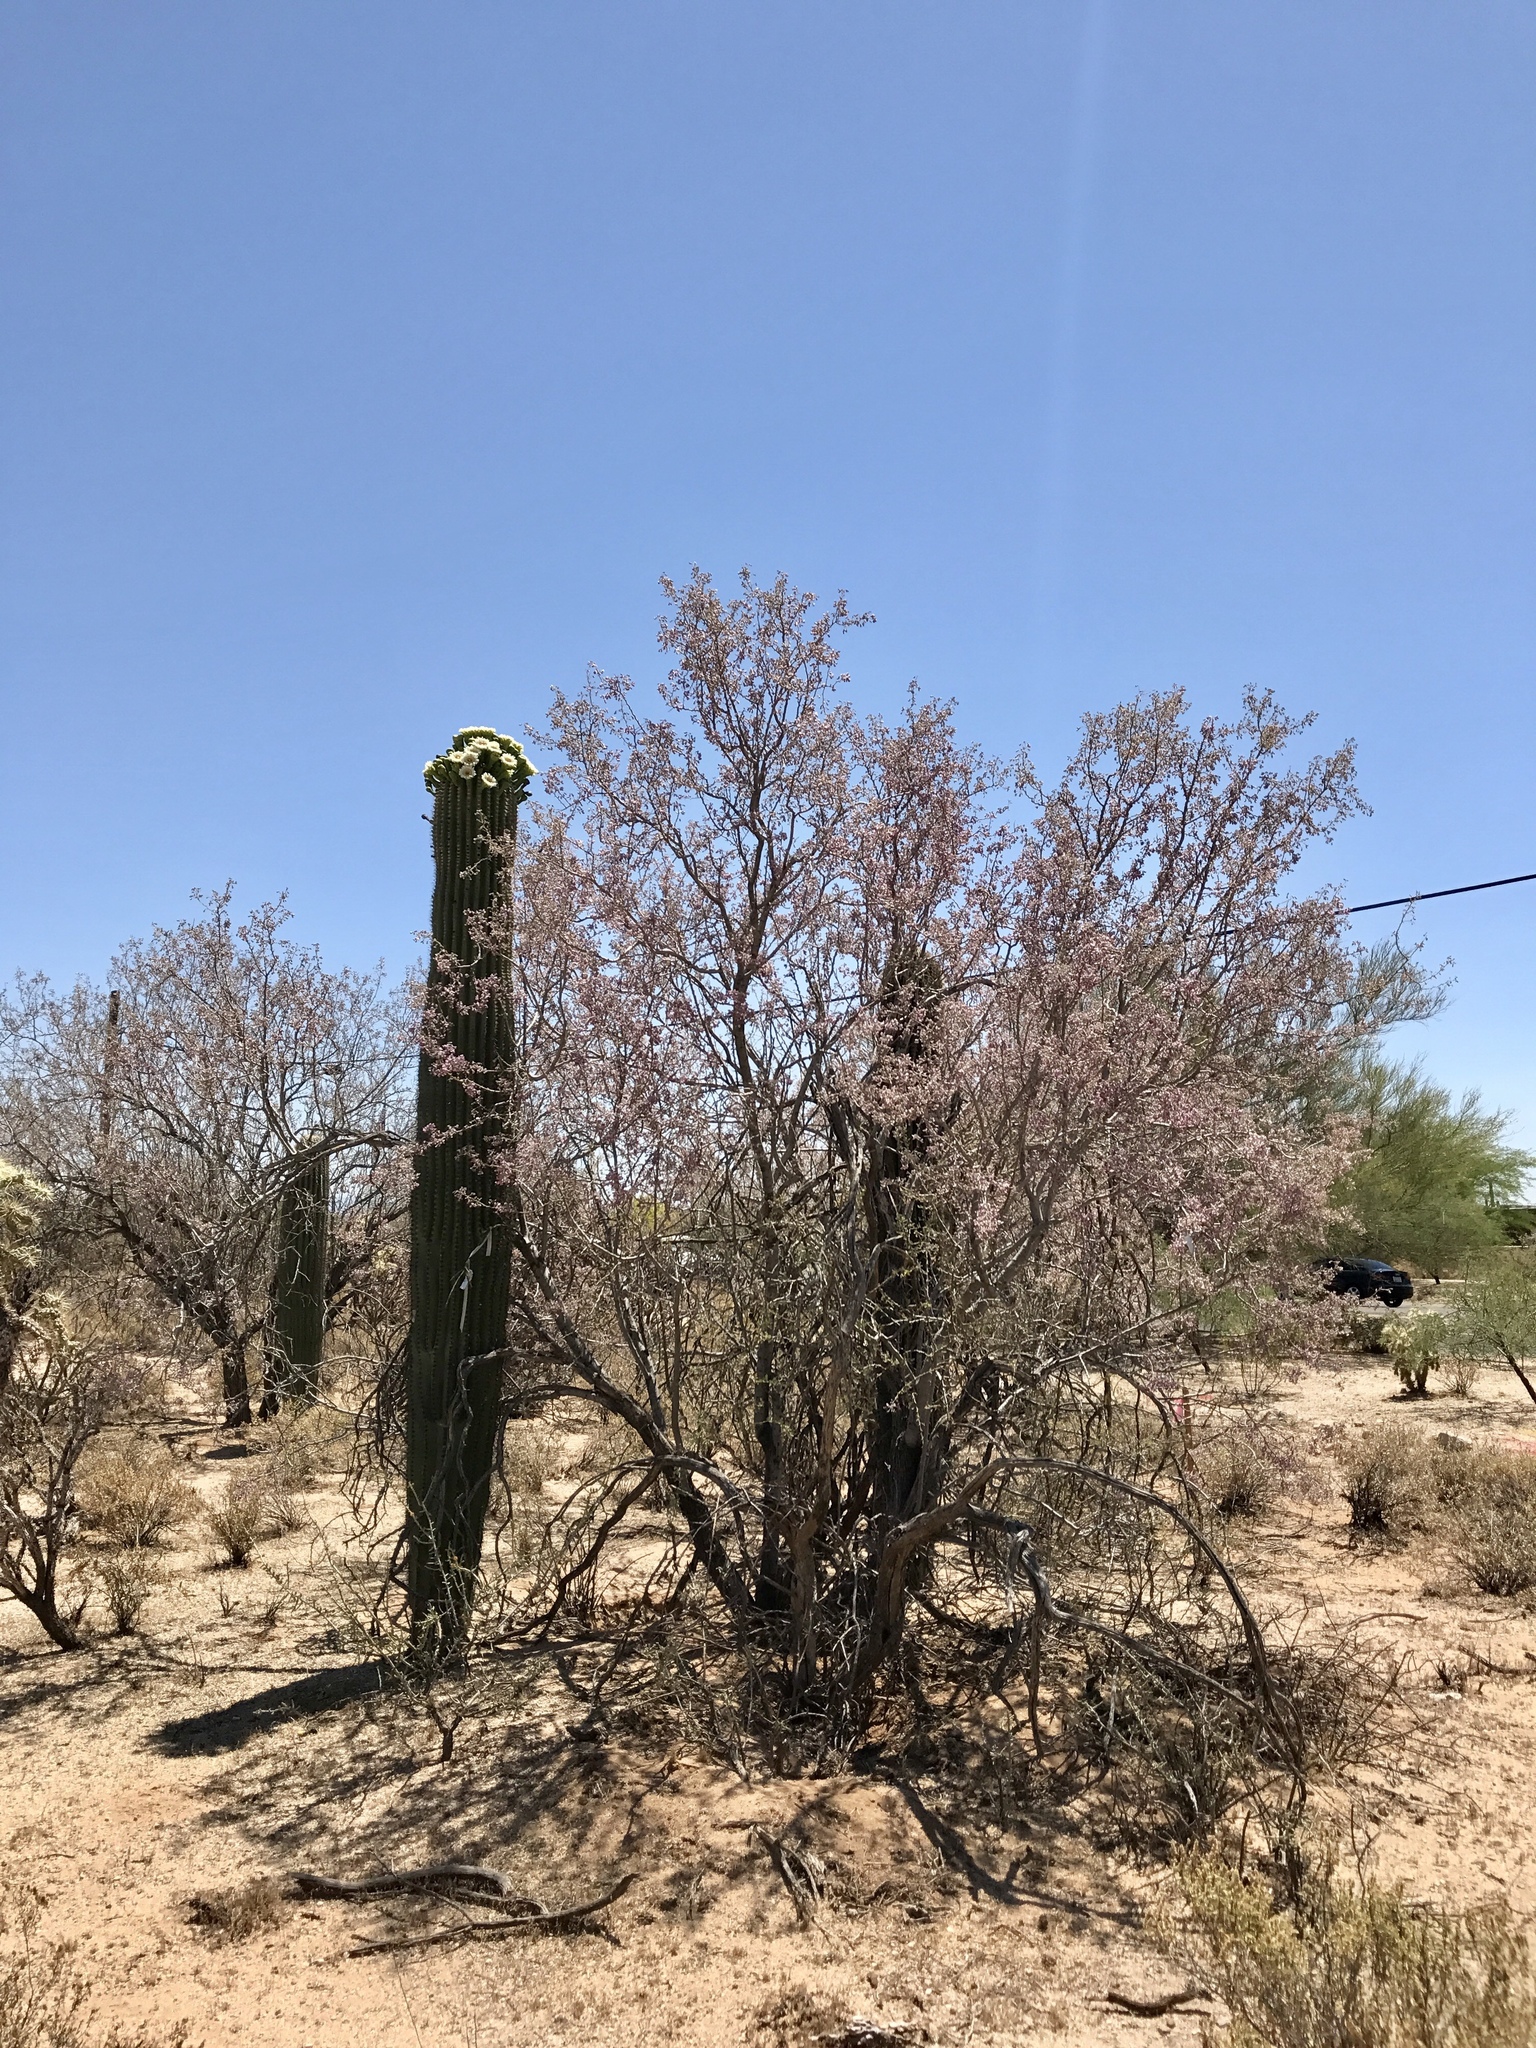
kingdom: Plantae
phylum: Tracheophyta
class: Magnoliopsida
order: Fabales
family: Fabaceae
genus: Olneya
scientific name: Olneya tesota
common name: Desert ironwood
